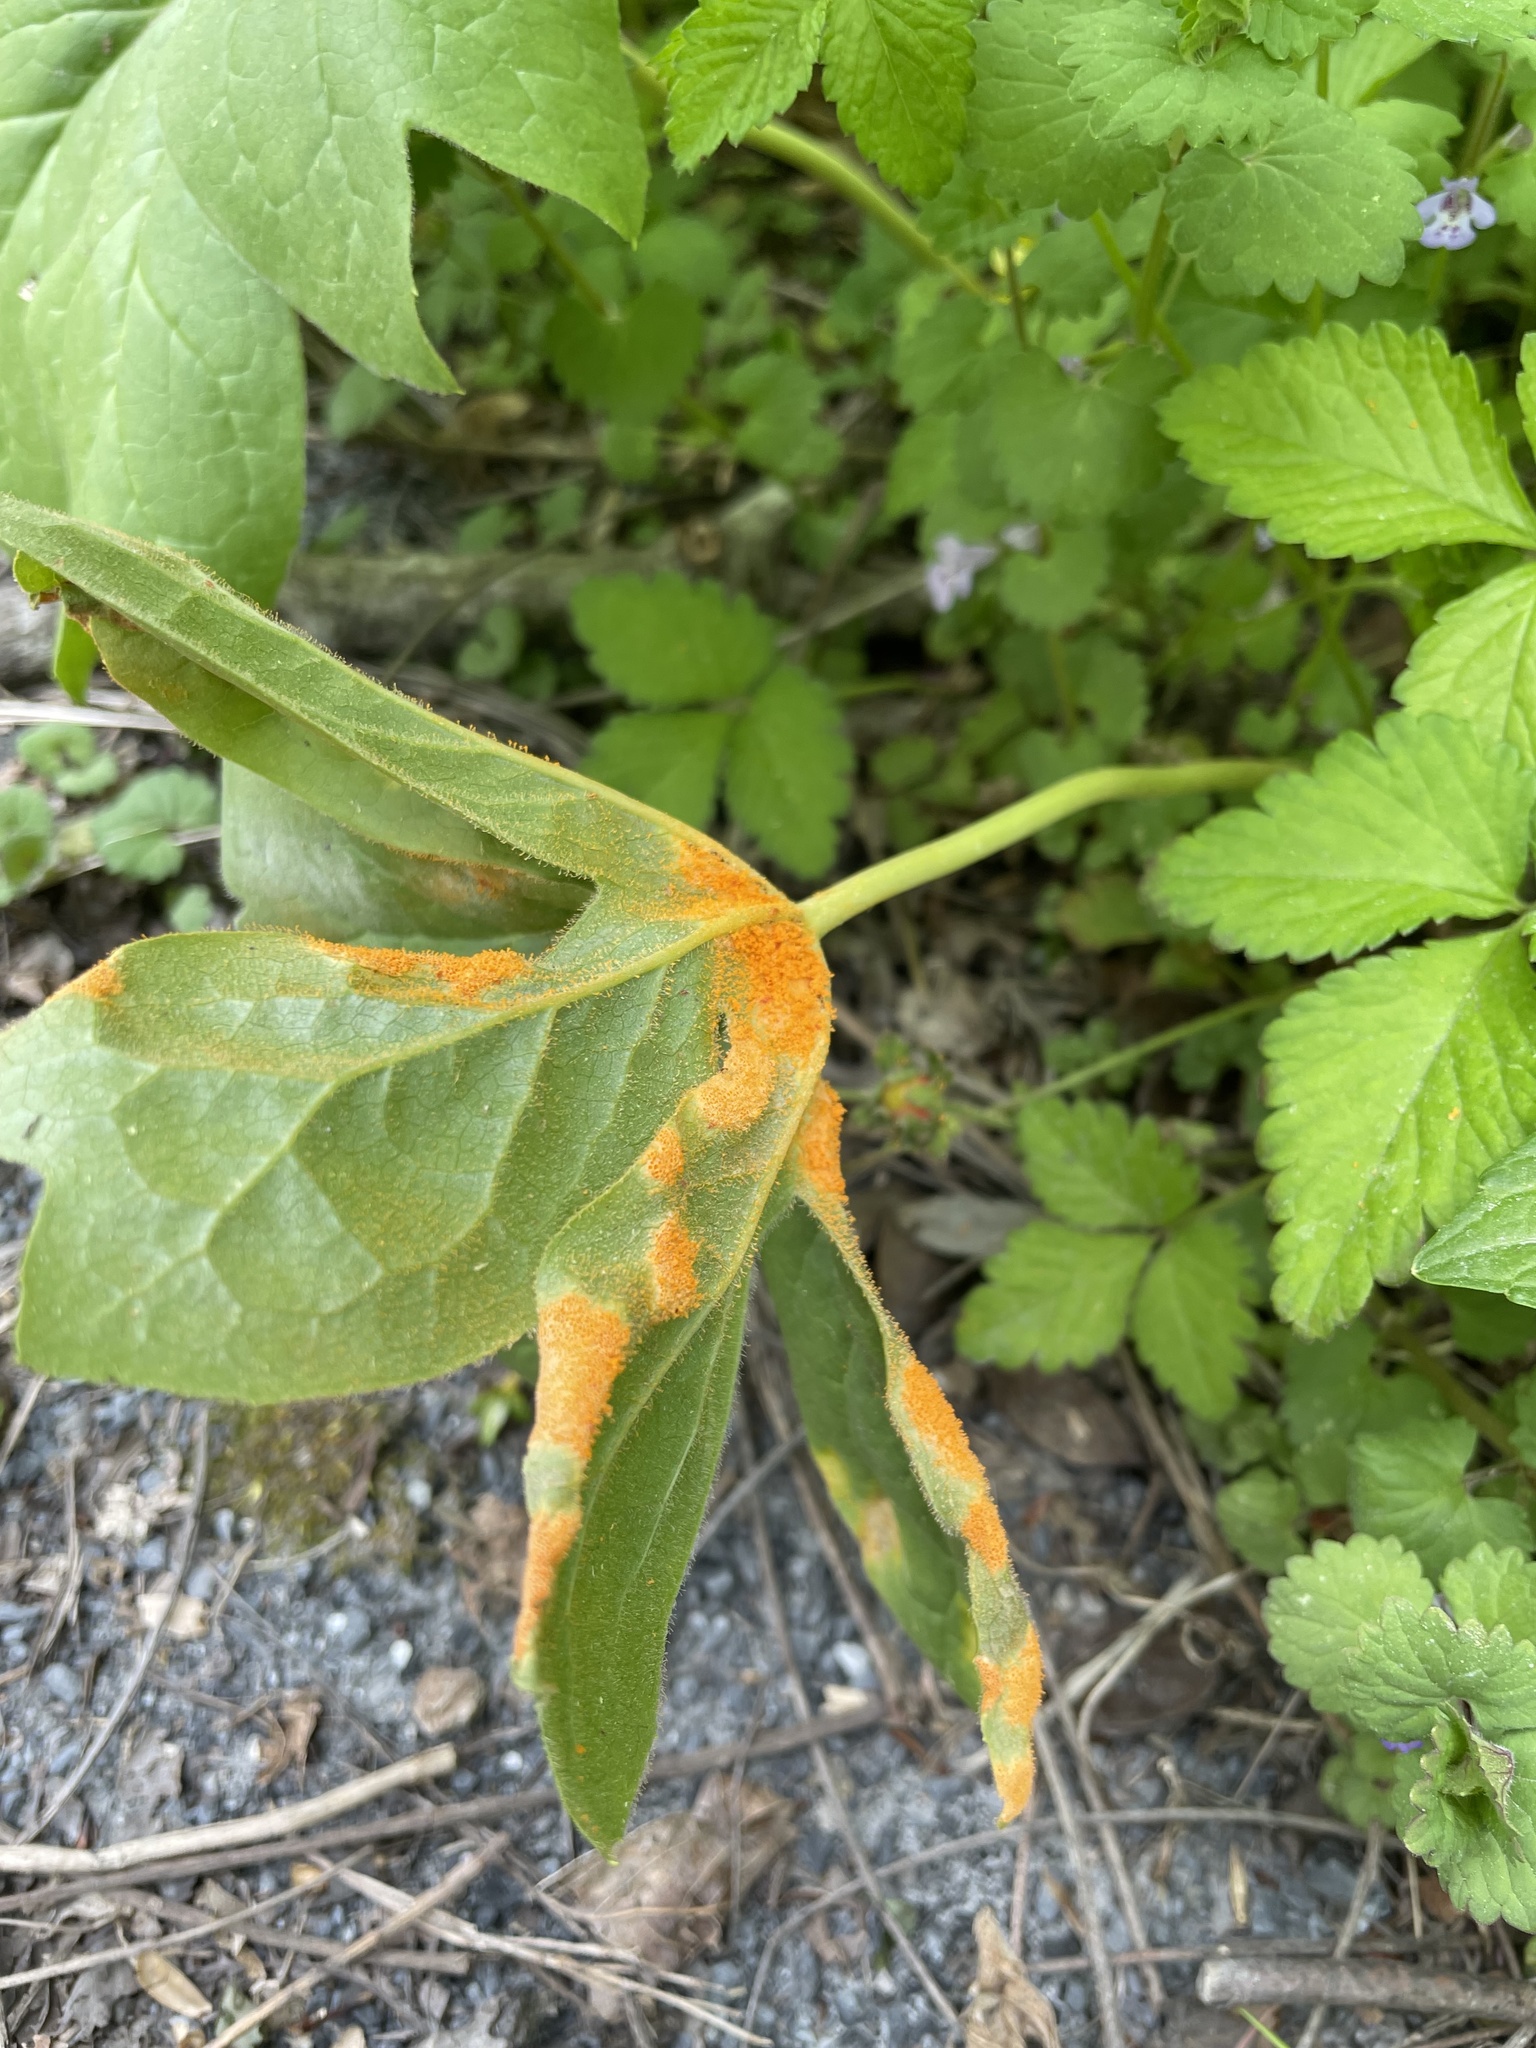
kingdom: Fungi
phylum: Basidiomycota
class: Pucciniomycetes
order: Pucciniales
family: Pucciniaceae
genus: Puccinia
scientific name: Puccinia podophylli
